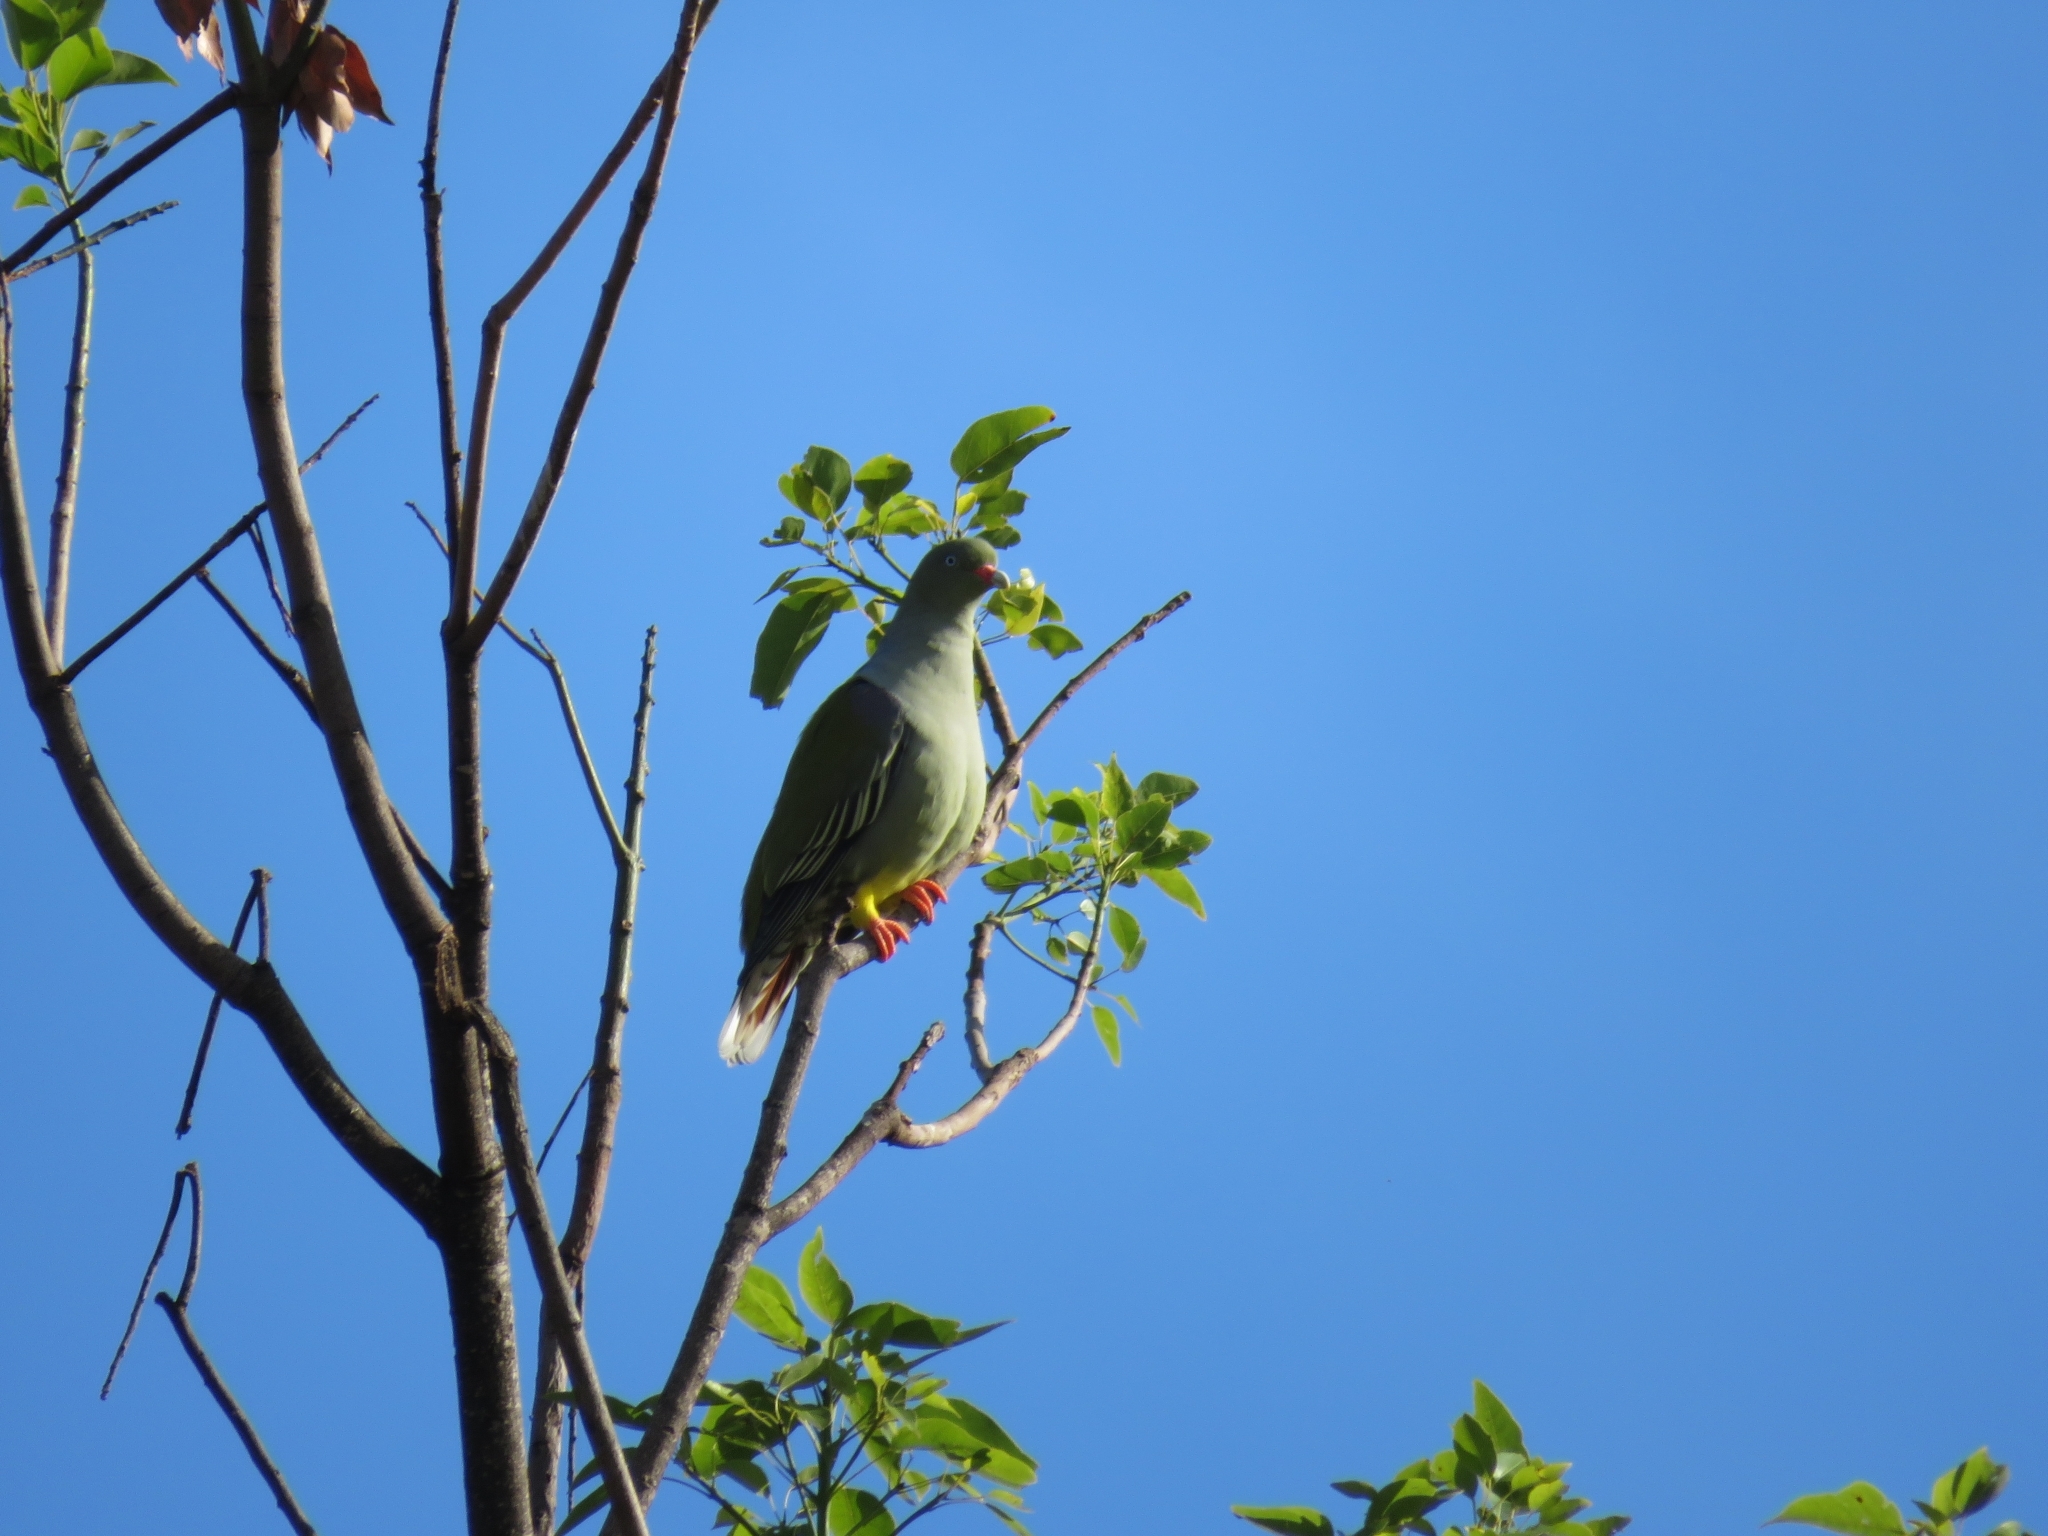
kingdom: Animalia
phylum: Chordata
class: Aves
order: Columbiformes
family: Columbidae
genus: Treron
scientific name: Treron calvus
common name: African green pigeon
